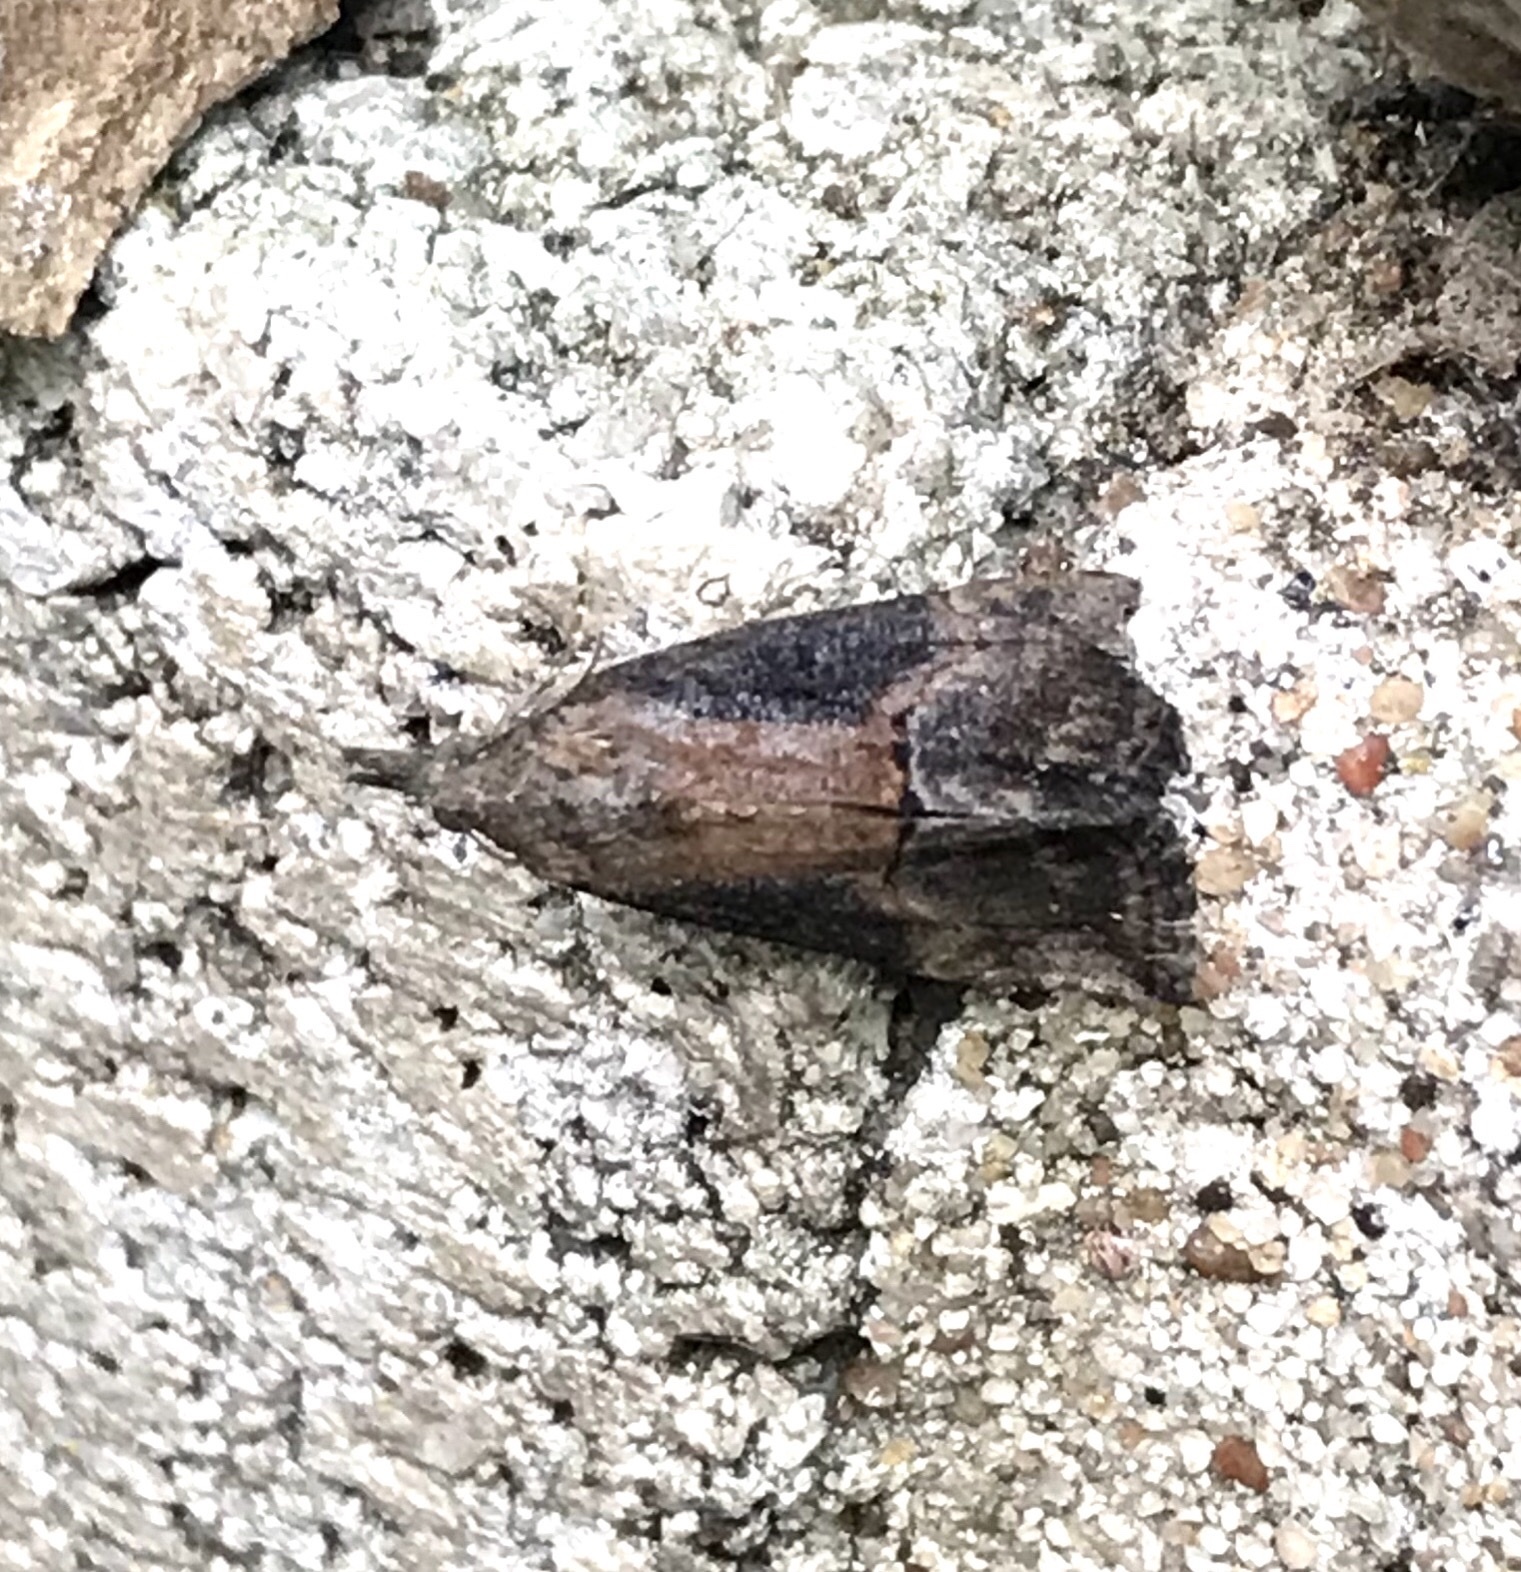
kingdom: Animalia
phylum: Arthropoda
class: Insecta
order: Lepidoptera
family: Erebidae
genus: Hypena
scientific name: Hypena scabra
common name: Green cloverworm
